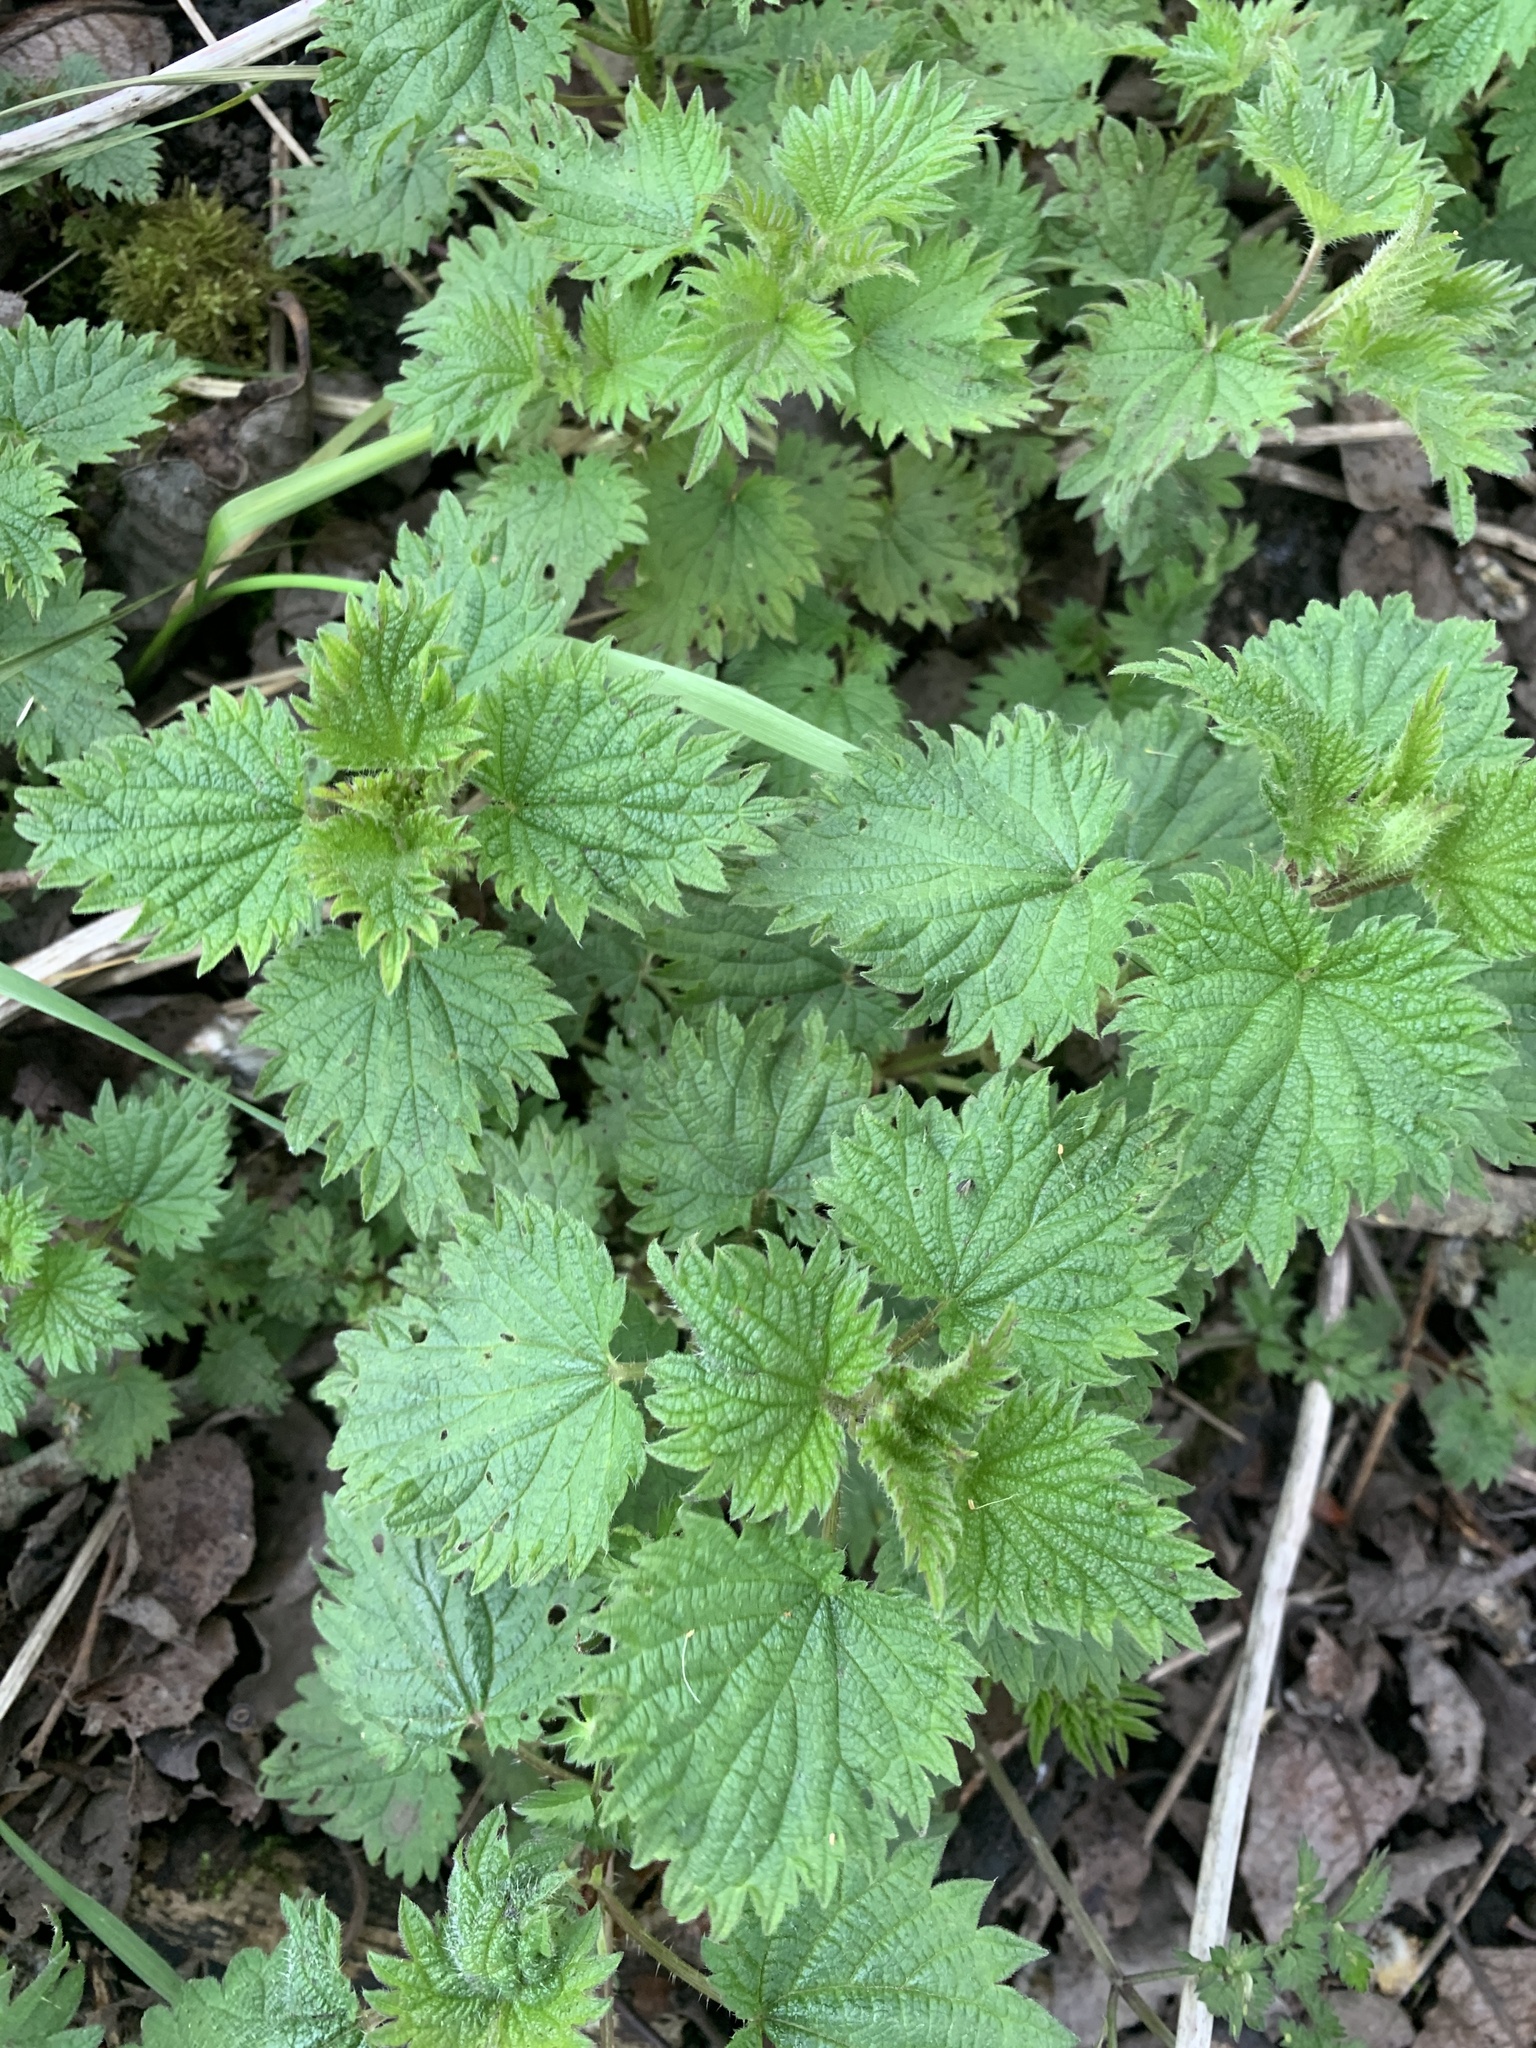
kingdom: Plantae
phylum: Tracheophyta
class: Magnoliopsida
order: Rosales
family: Urticaceae
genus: Urtica
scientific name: Urtica dioica
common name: Common nettle
